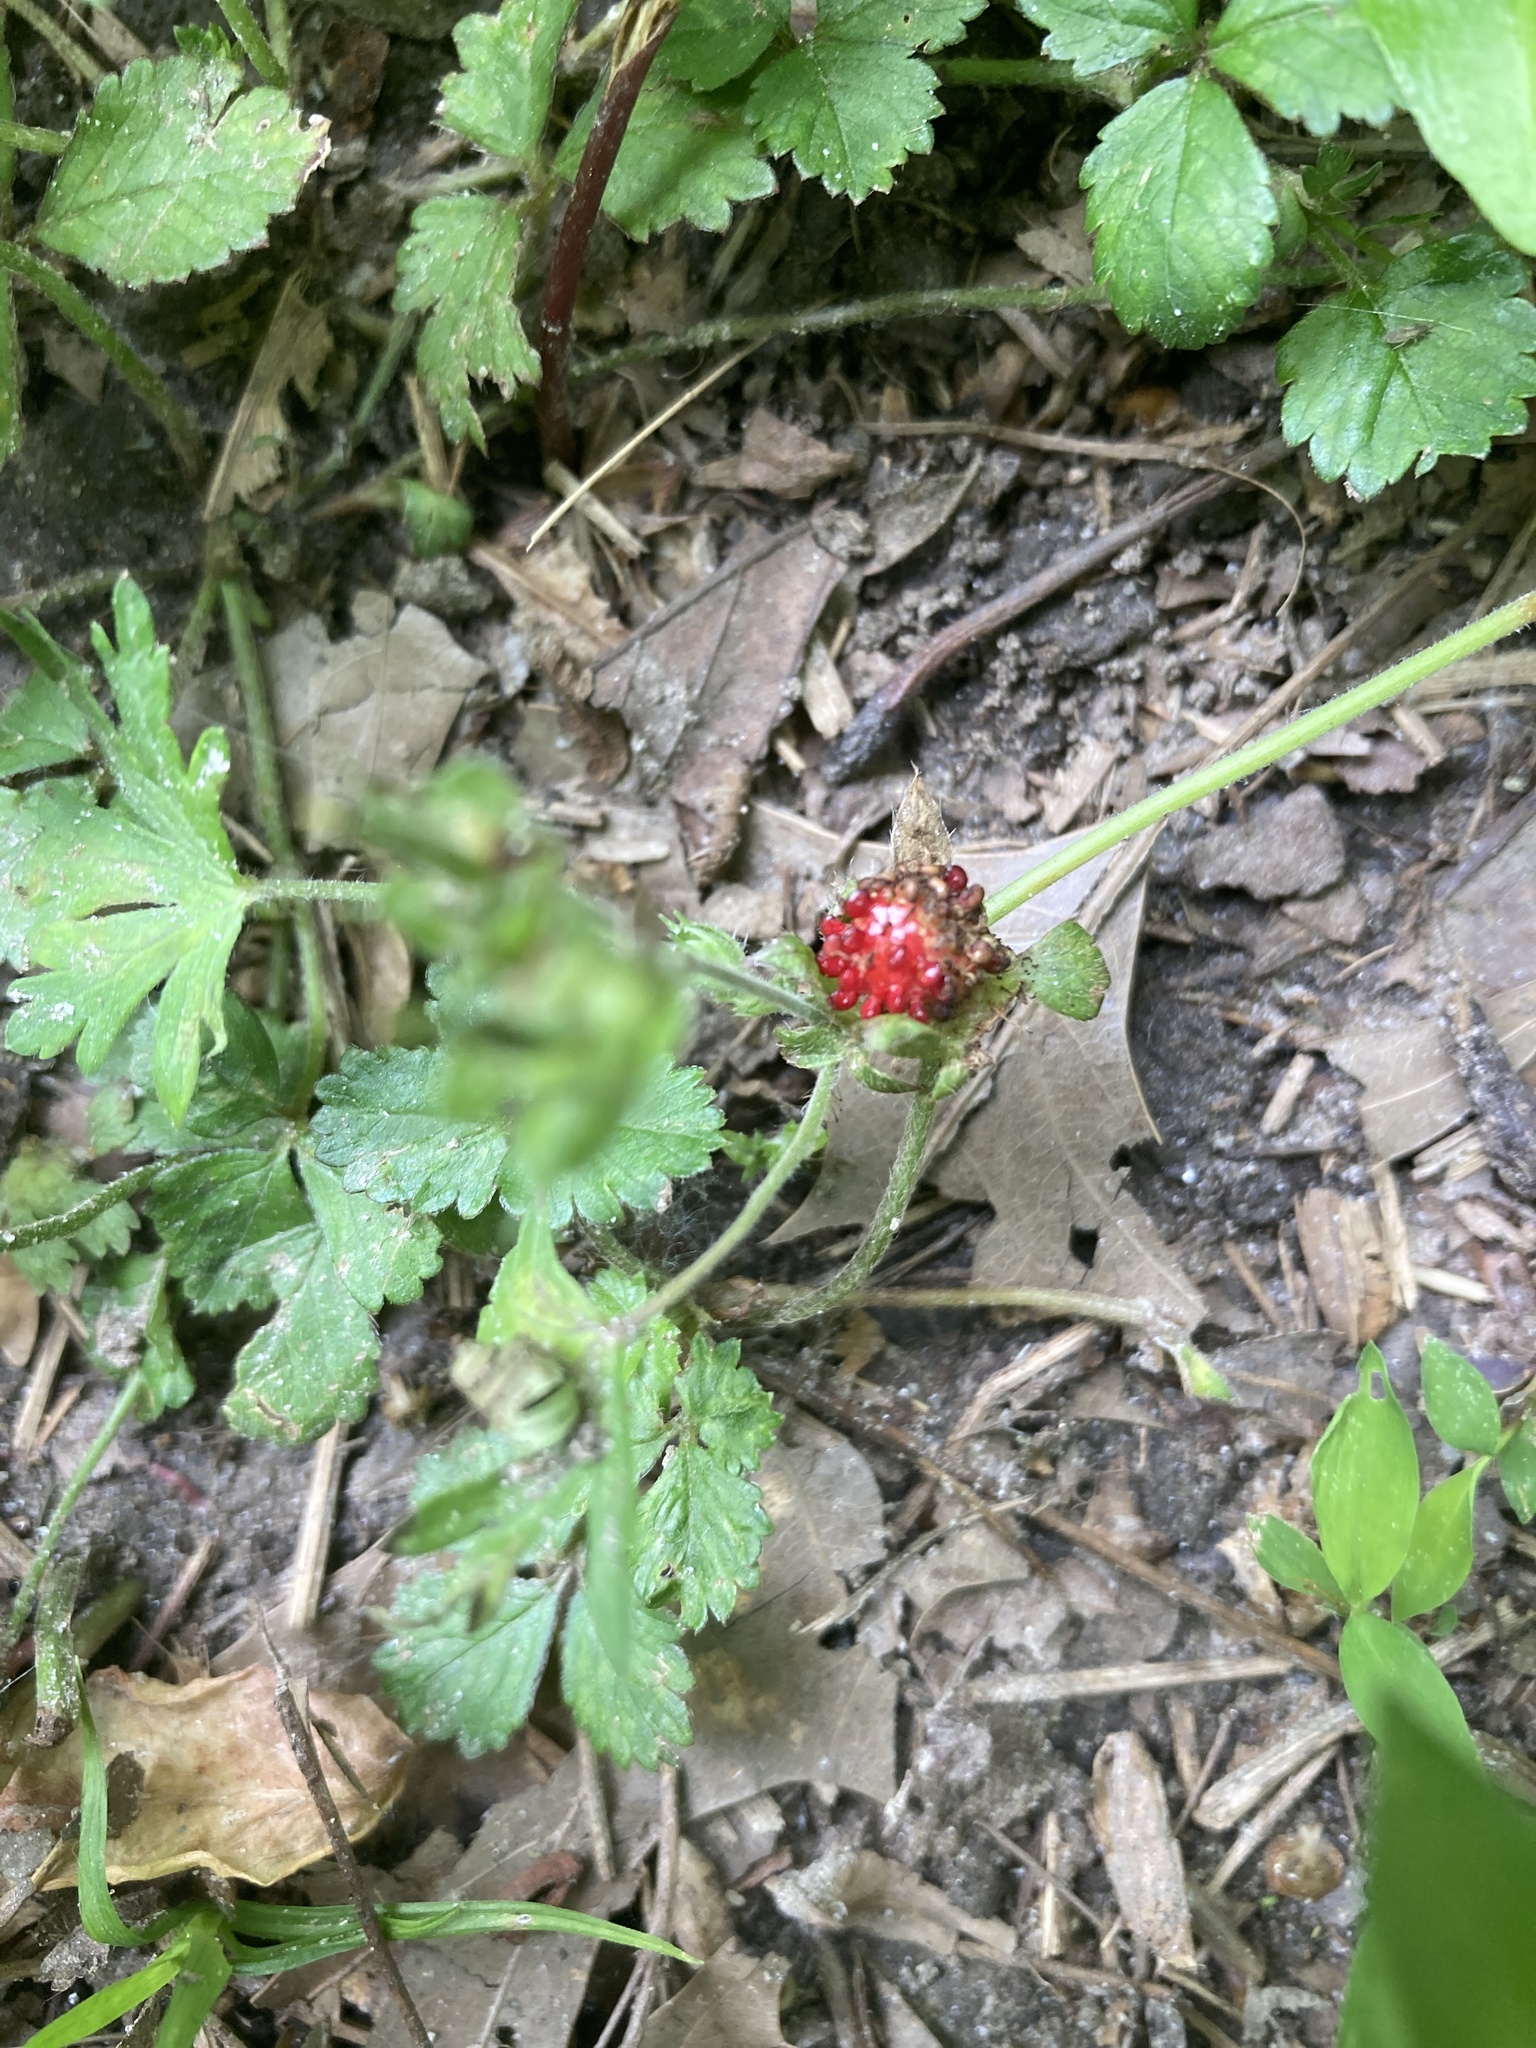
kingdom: Plantae
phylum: Tracheophyta
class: Magnoliopsida
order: Rosales
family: Rosaceae
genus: Potentilla
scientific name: Potentilla indica
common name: Yellow-flowered strawberry
